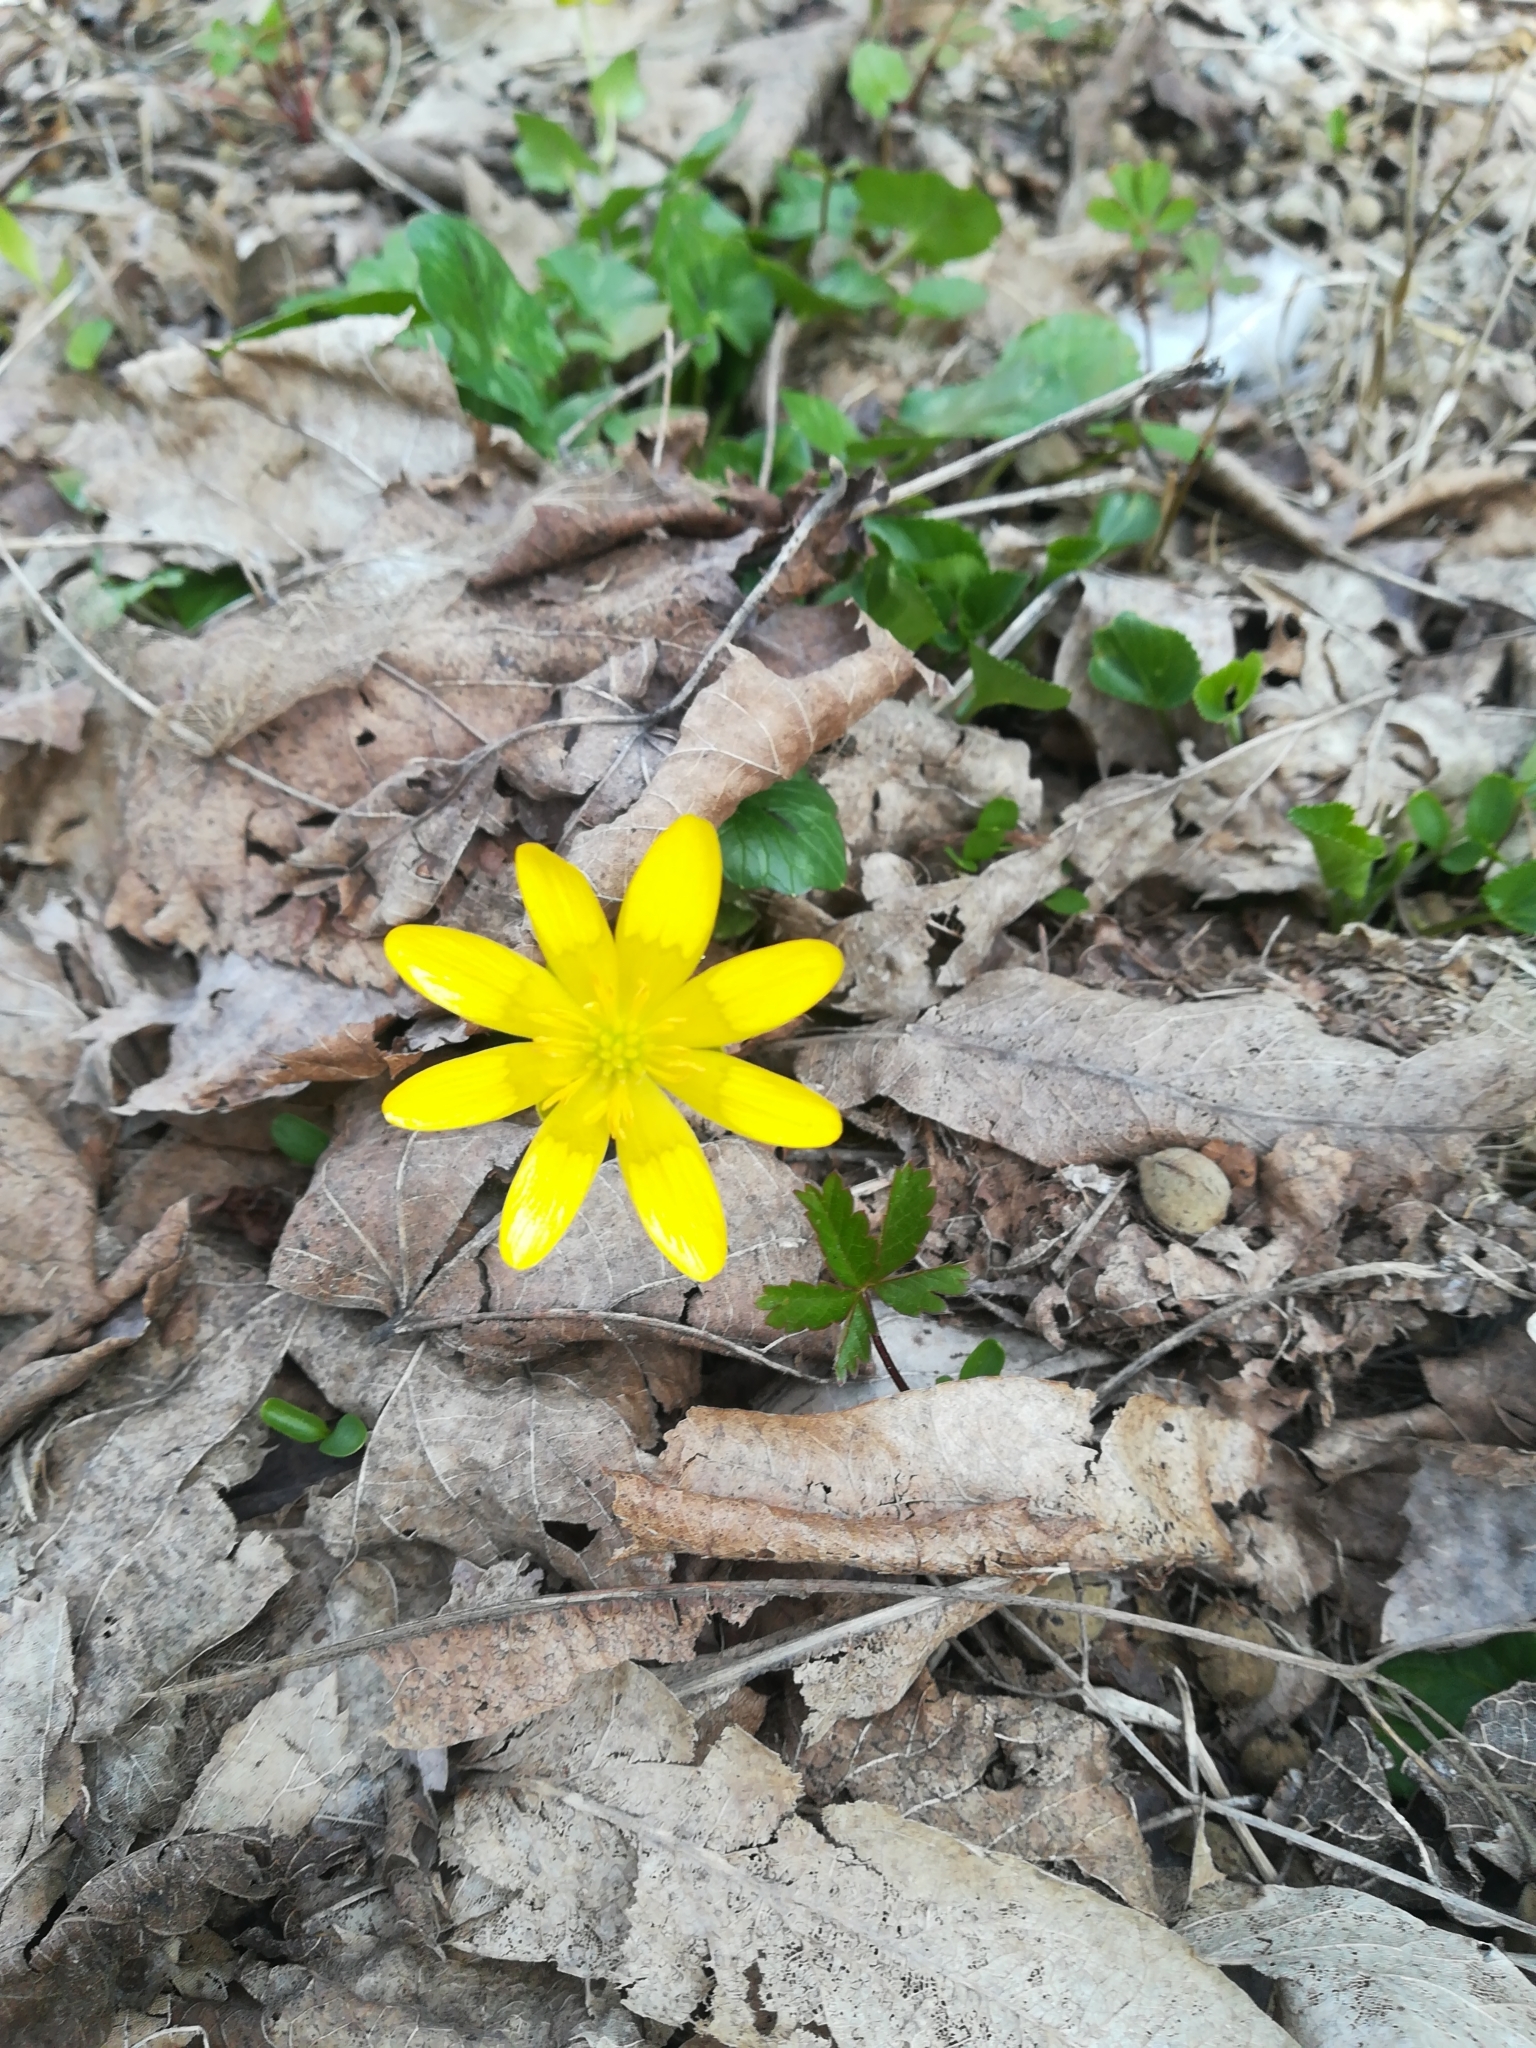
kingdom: Plantae
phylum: Tracheophyta
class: Magnoliopsida
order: Ranunculales
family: Ranunculaceae
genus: Ficaria
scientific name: Ficaria verna
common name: Lesser celandine
